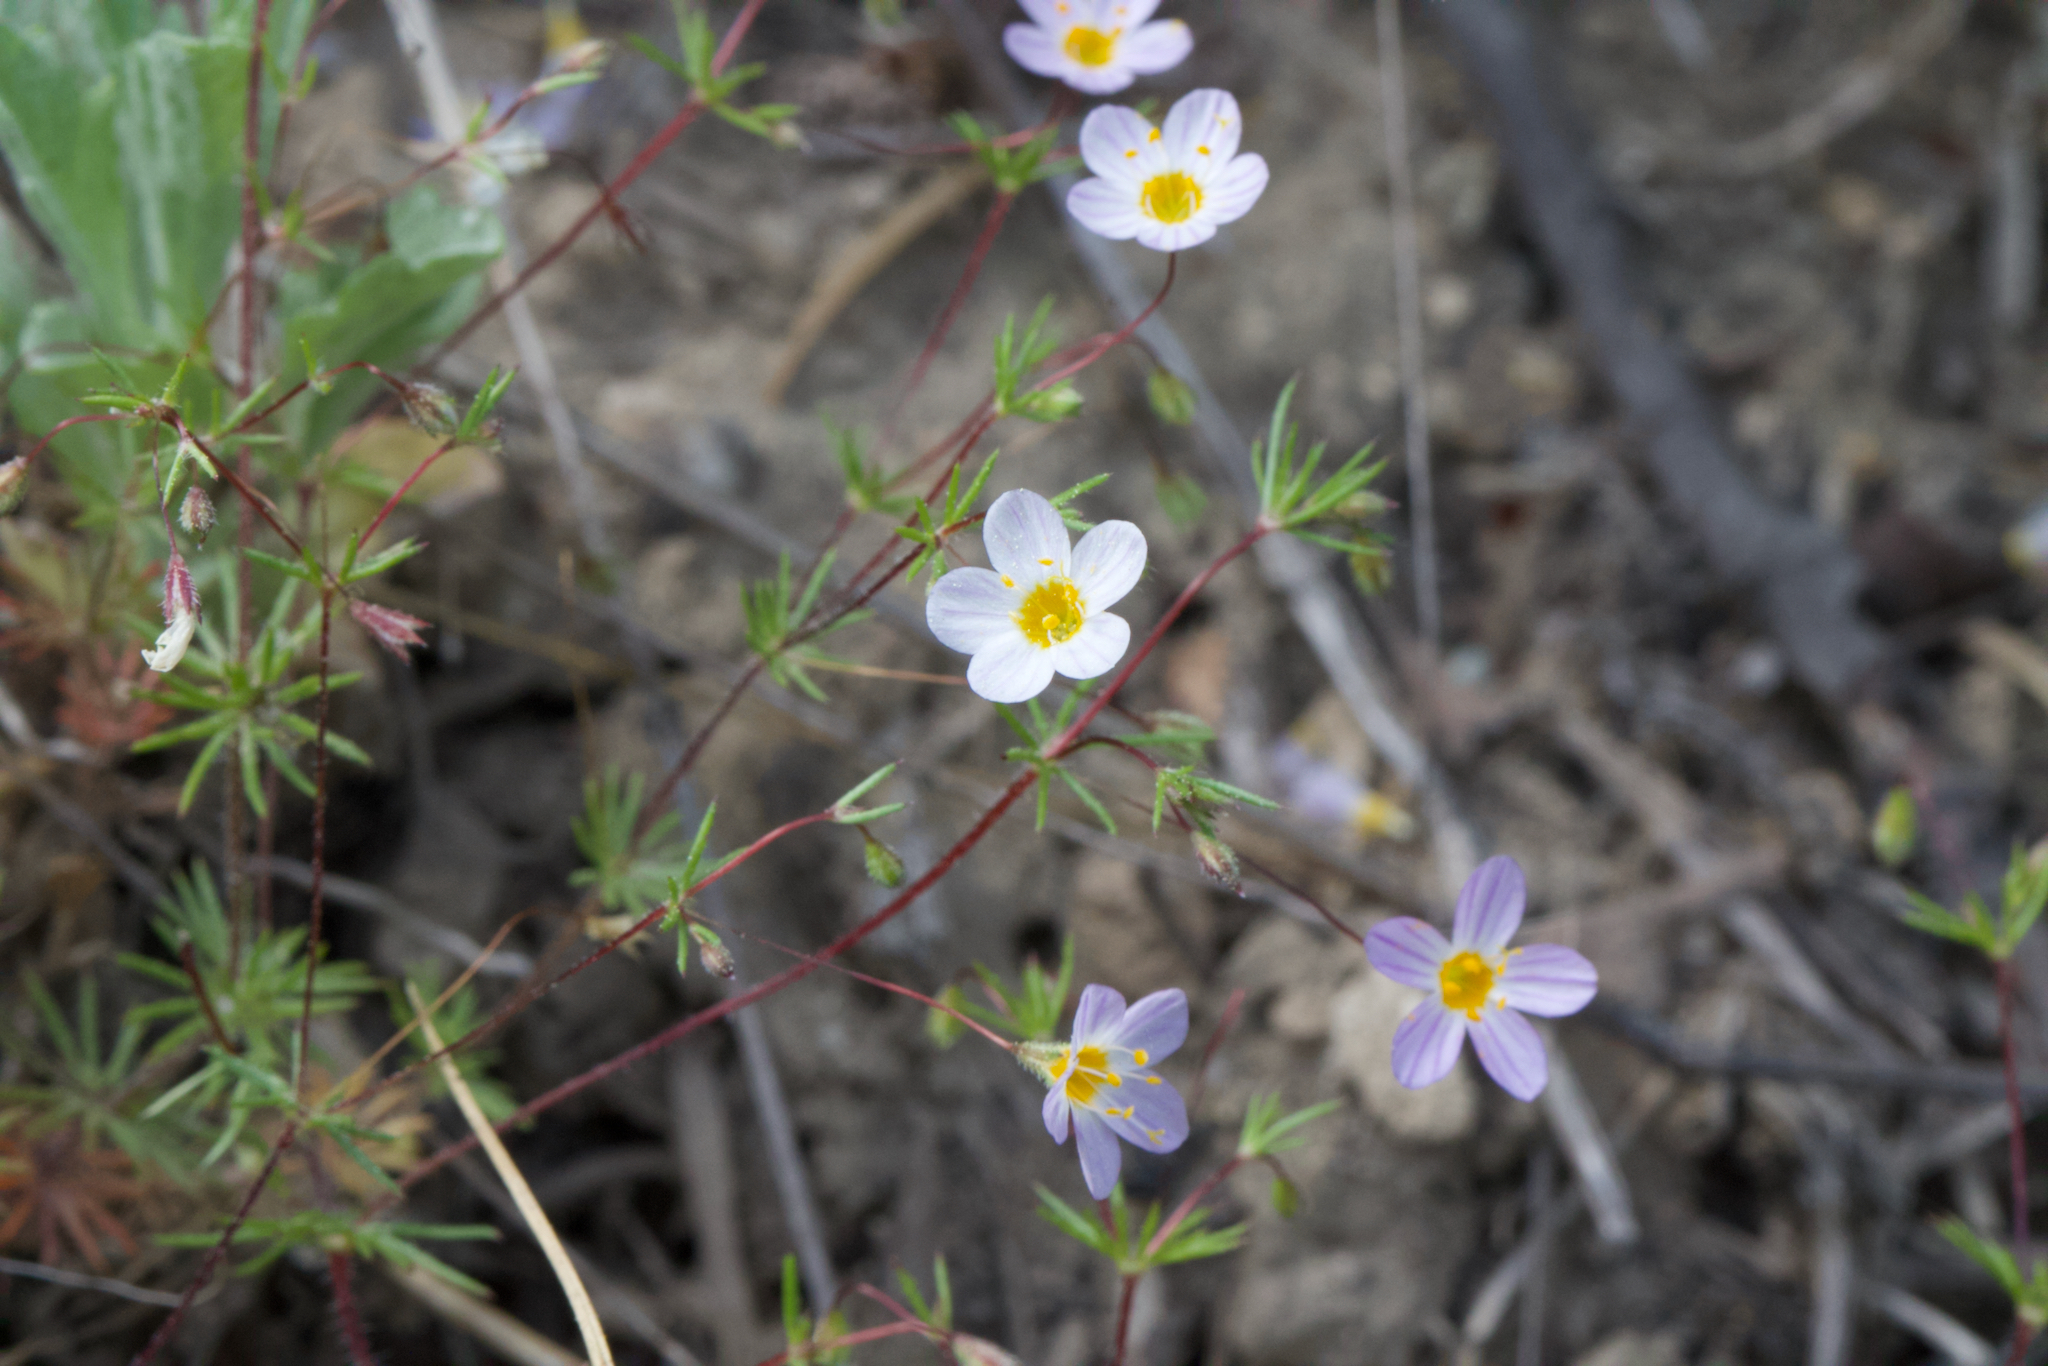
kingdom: Plantae
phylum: Tracheophyta
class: Magnoliopsida
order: Ericales
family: Polemoniaceae
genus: Leptosiphon
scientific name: Leptosiphon filipes
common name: Thread linanthus
